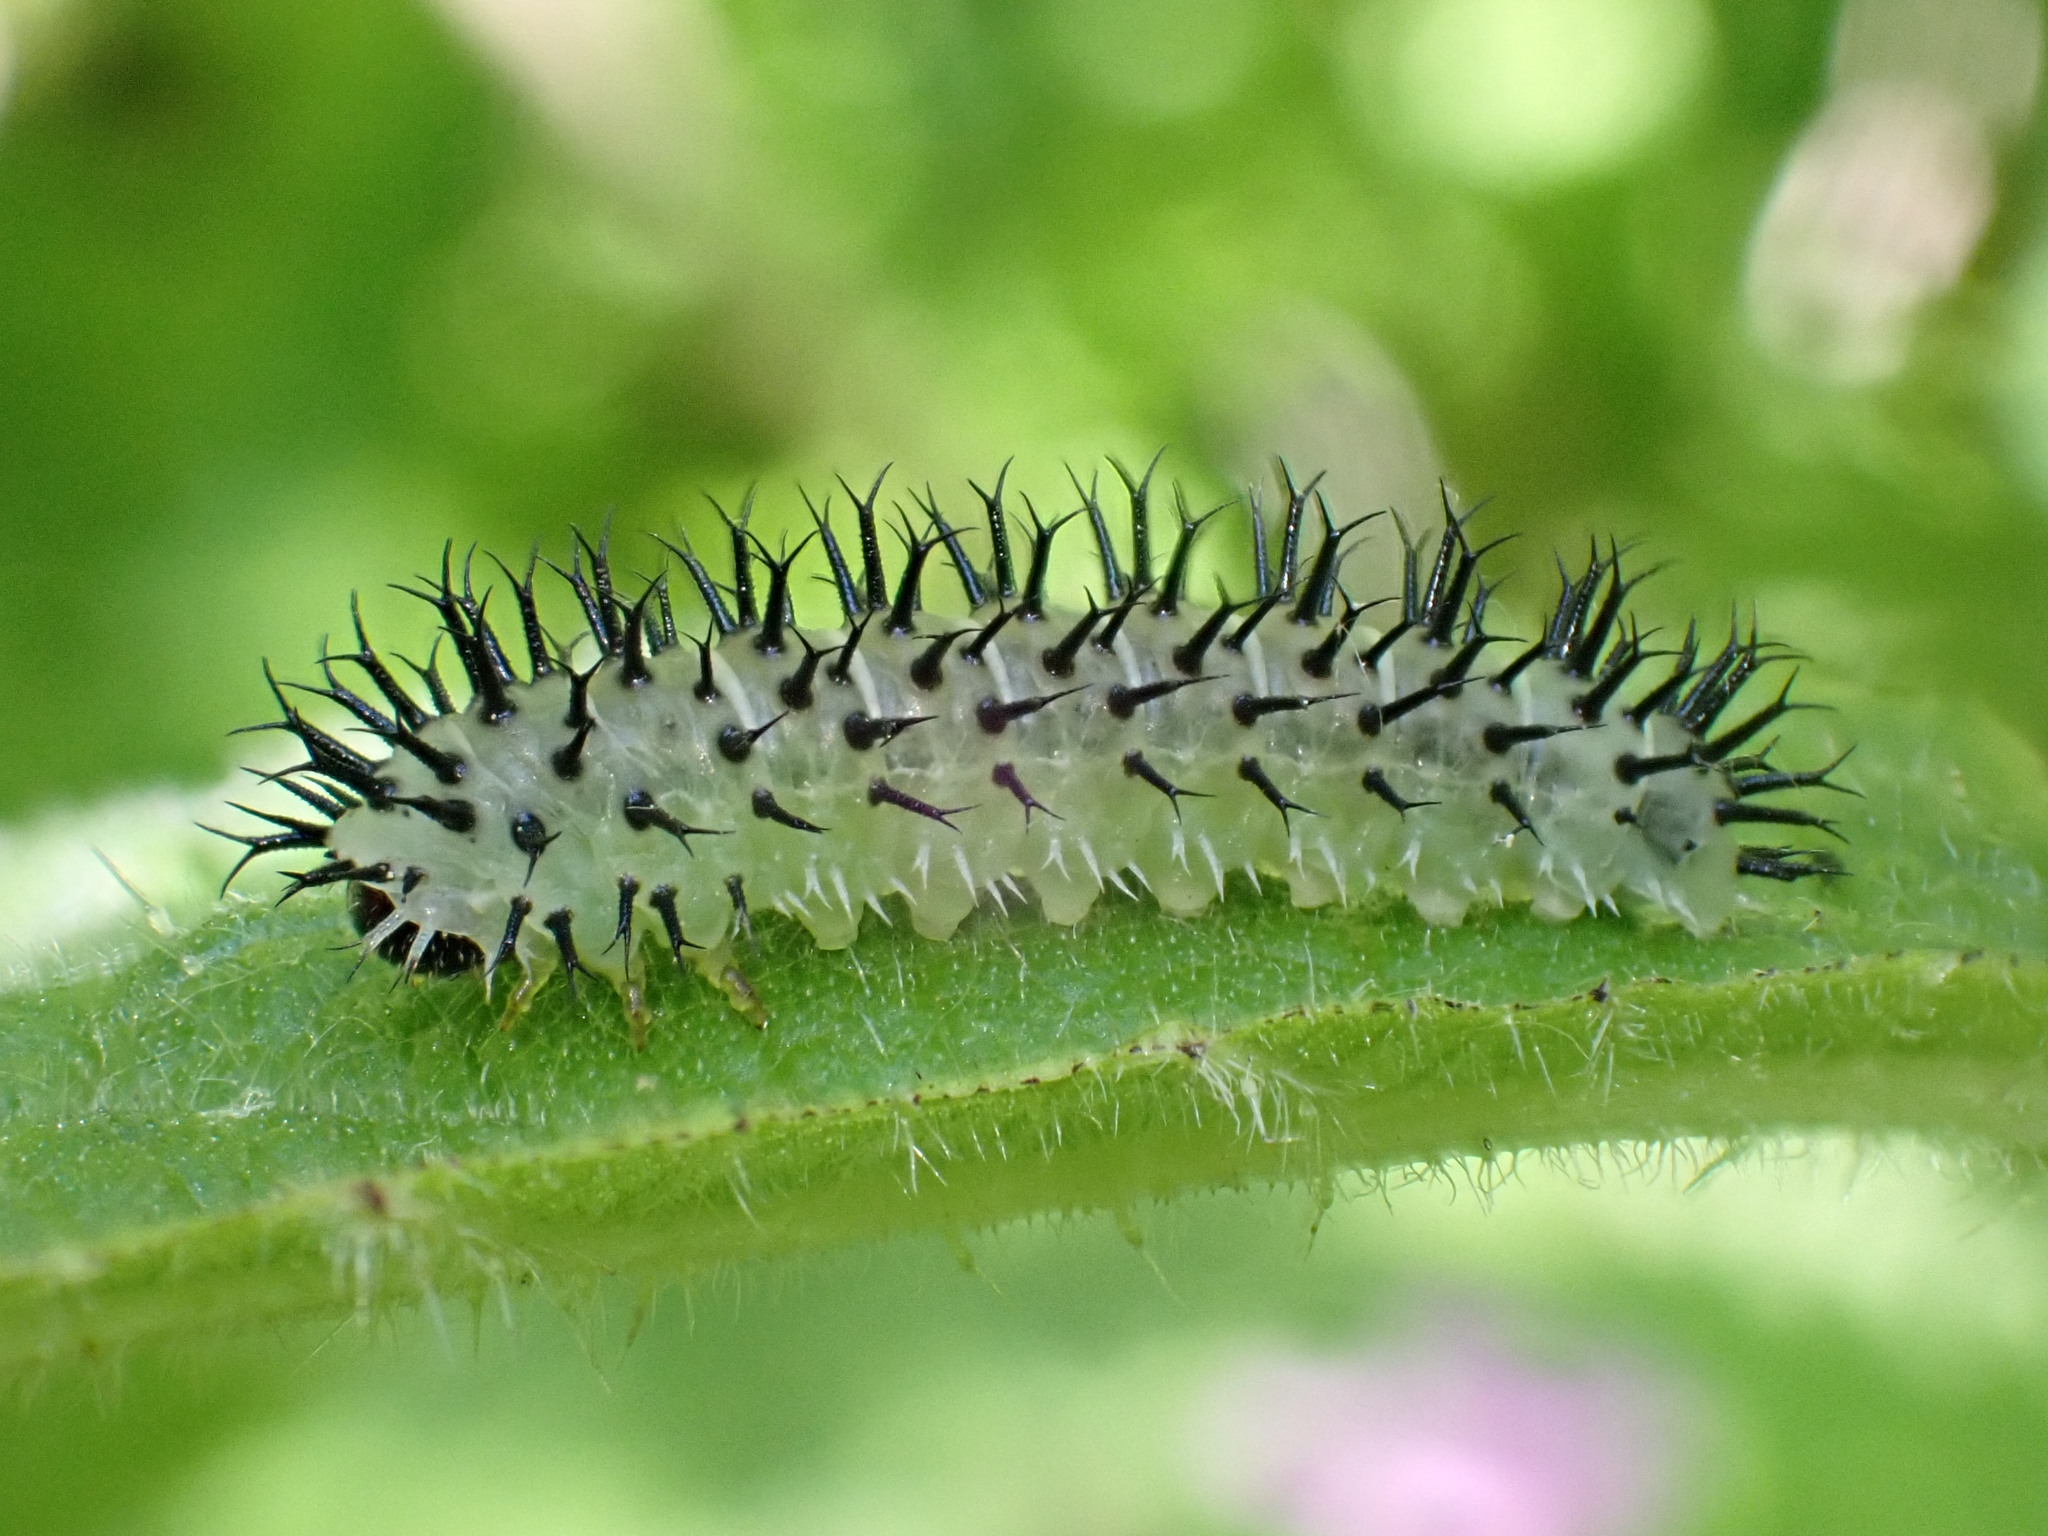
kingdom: Animalia
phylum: Arthropoda
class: Insecta
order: Hymenoptera
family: Tenthredinidae
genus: Periclista
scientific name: Periclista pubescens
